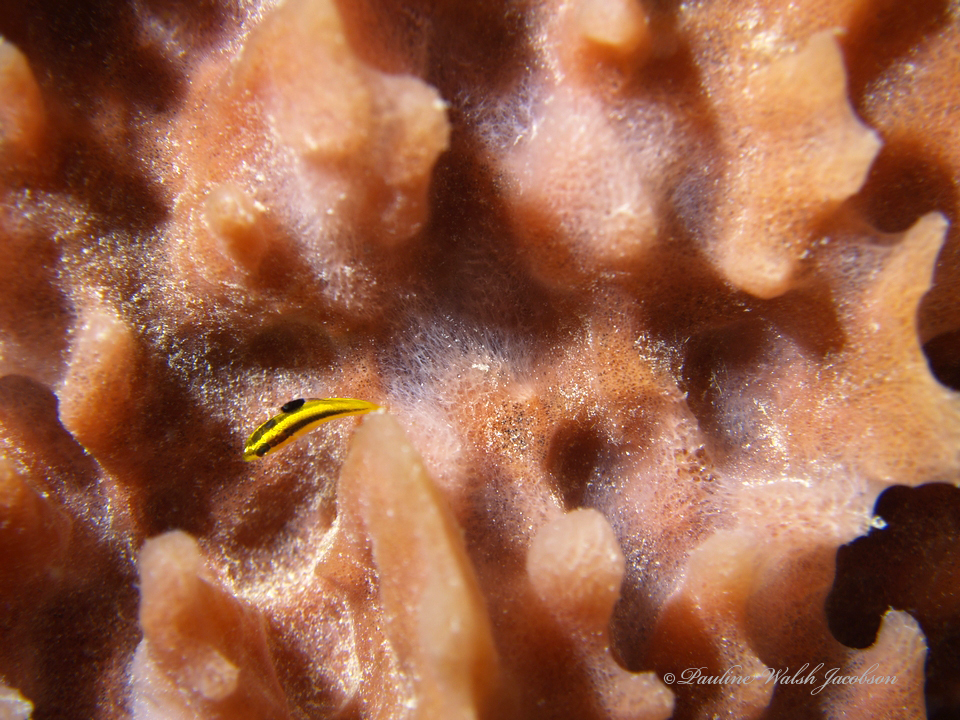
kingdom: Animalia
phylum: Chordata
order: Perciformes
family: Labridae
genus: Thalassoma
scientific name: Thalassoma bifasciatum
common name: Bluehead wrasse
